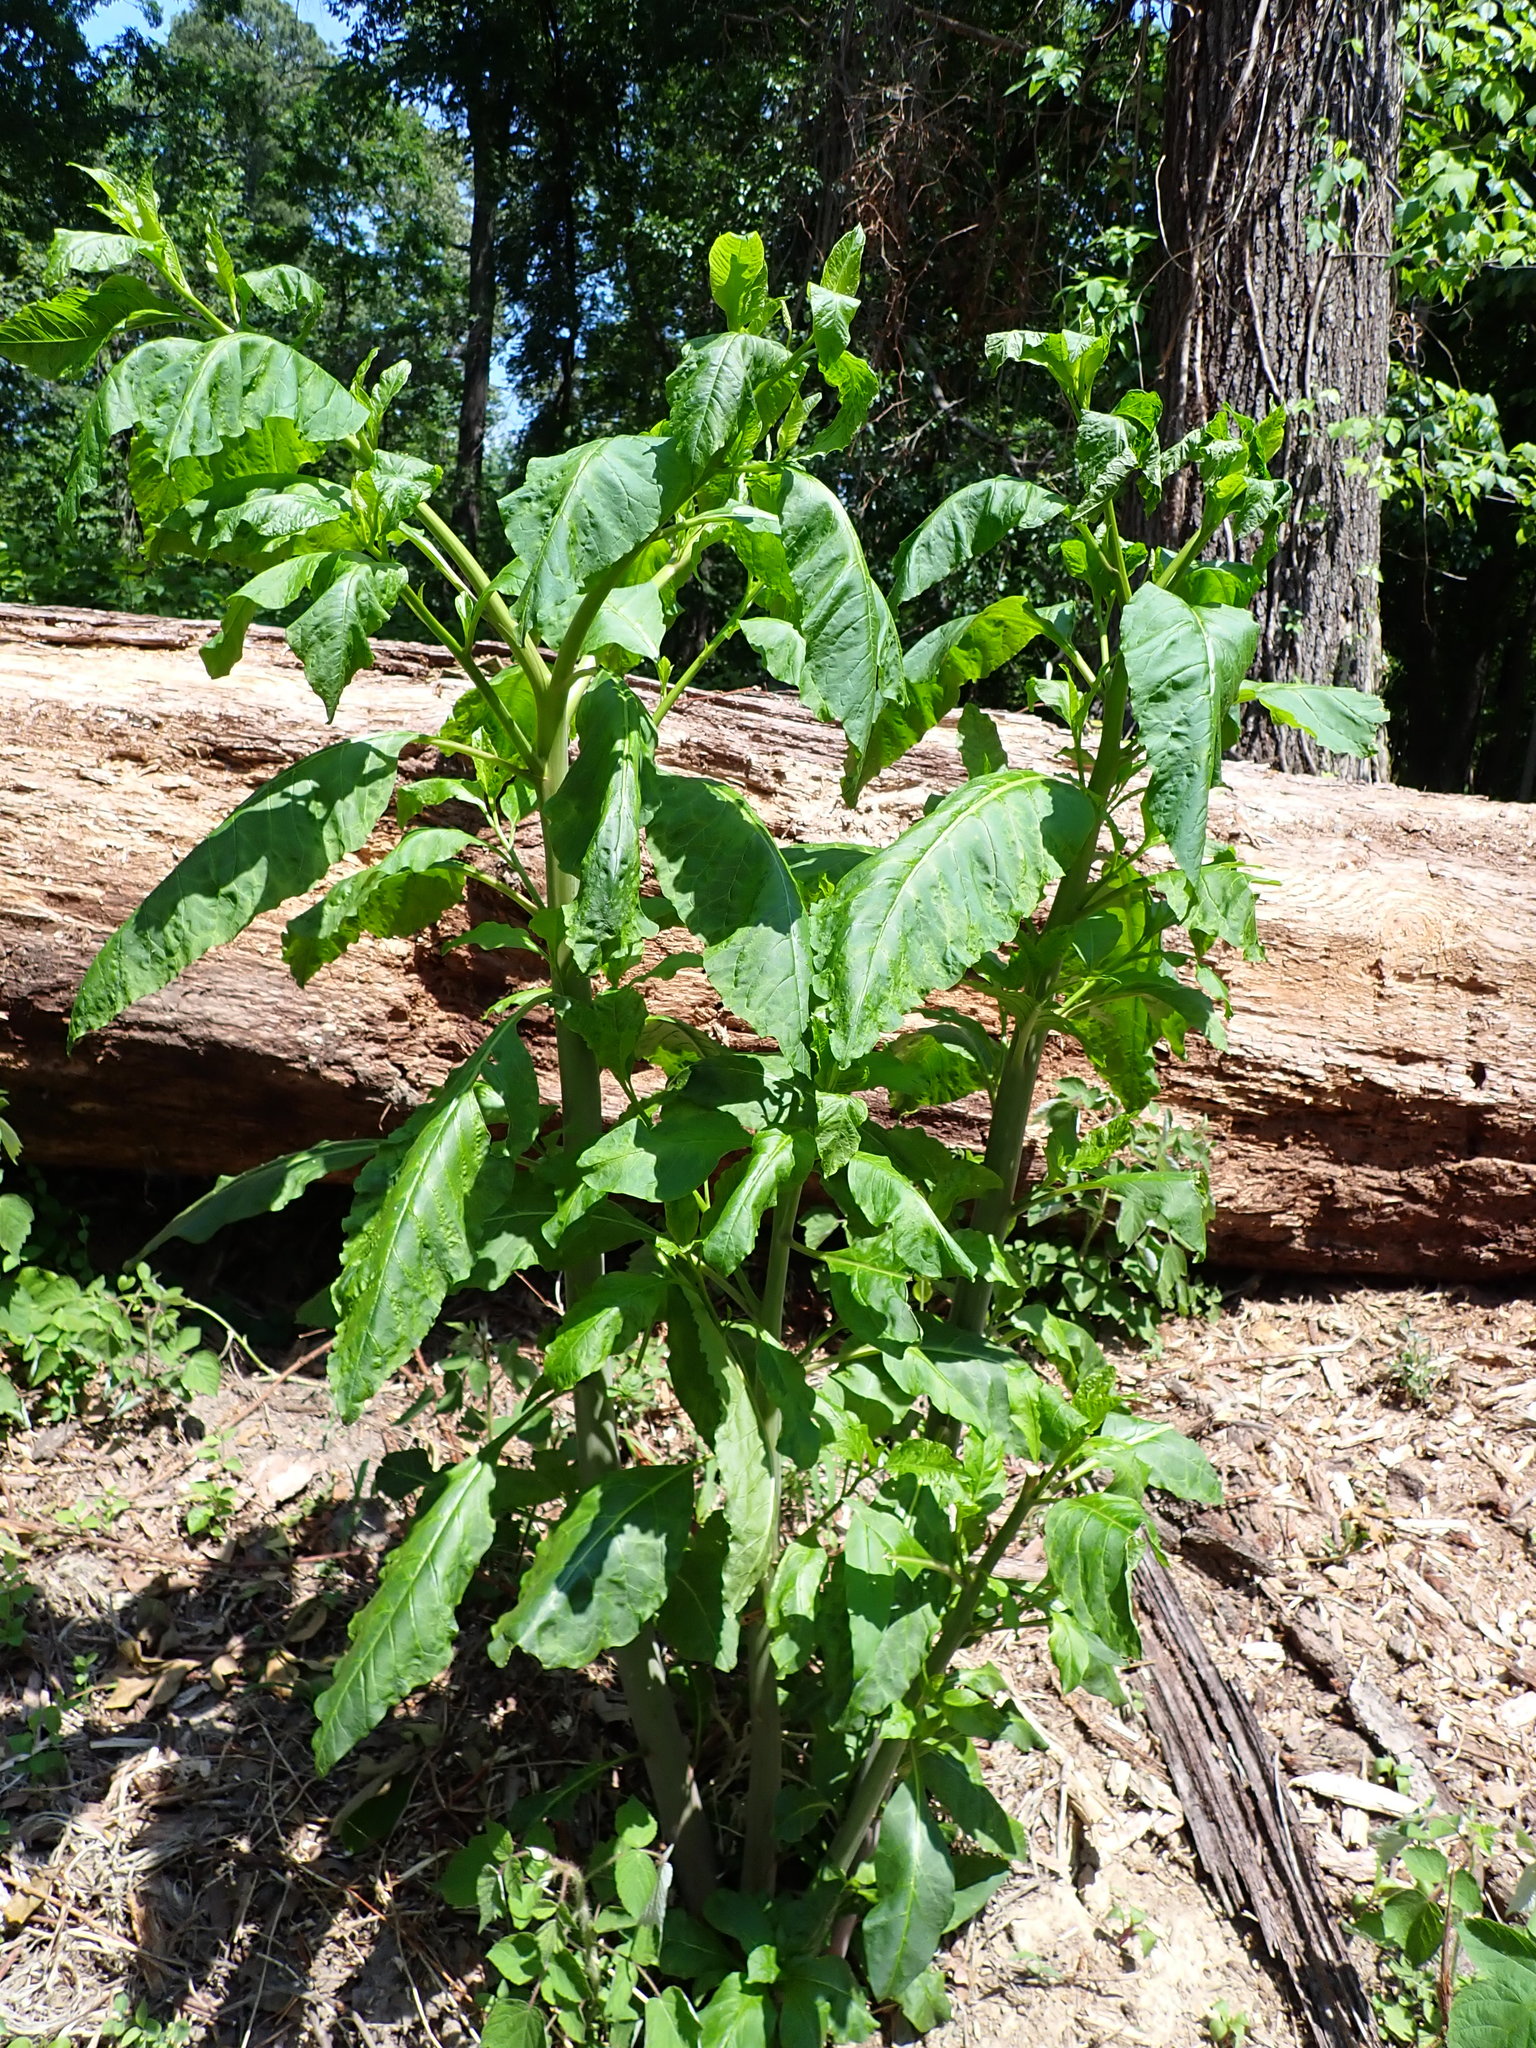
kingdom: Plantae
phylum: Tracheophyta
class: Magnoliopsida
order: Caryophyllales
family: Phytolaccaceae
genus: Phytolacca
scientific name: Phytolacca americana
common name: American pokeweed
